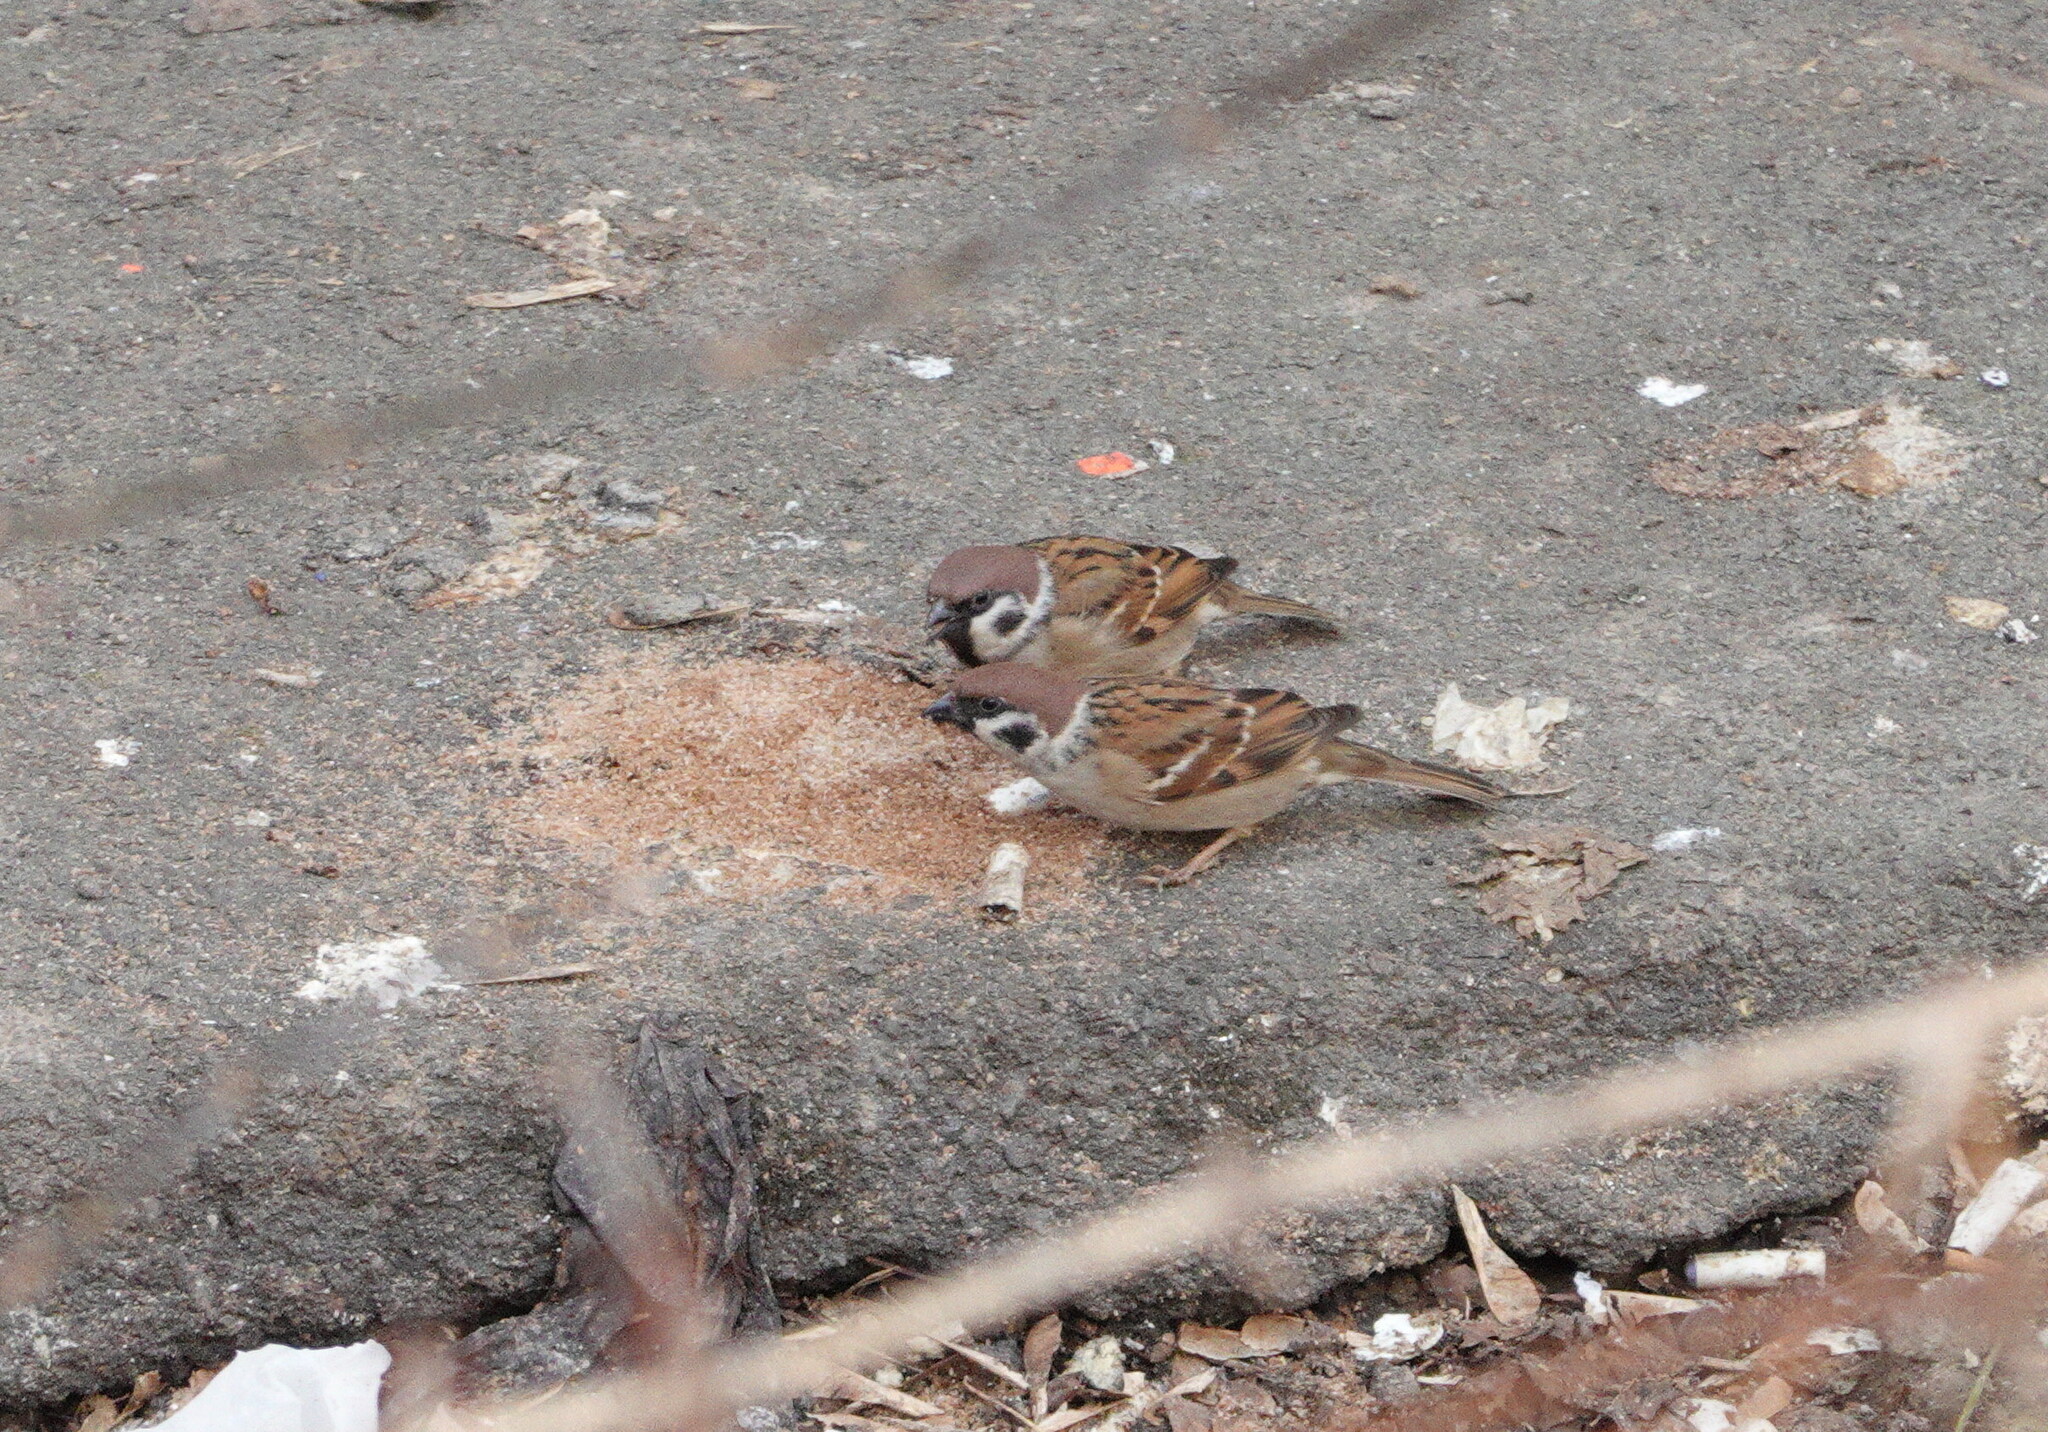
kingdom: Animalia
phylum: Chordata
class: Aves
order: Passeriformes
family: Passeridae
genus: Passer
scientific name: Passer montanus
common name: Eurasian tree sparrow
